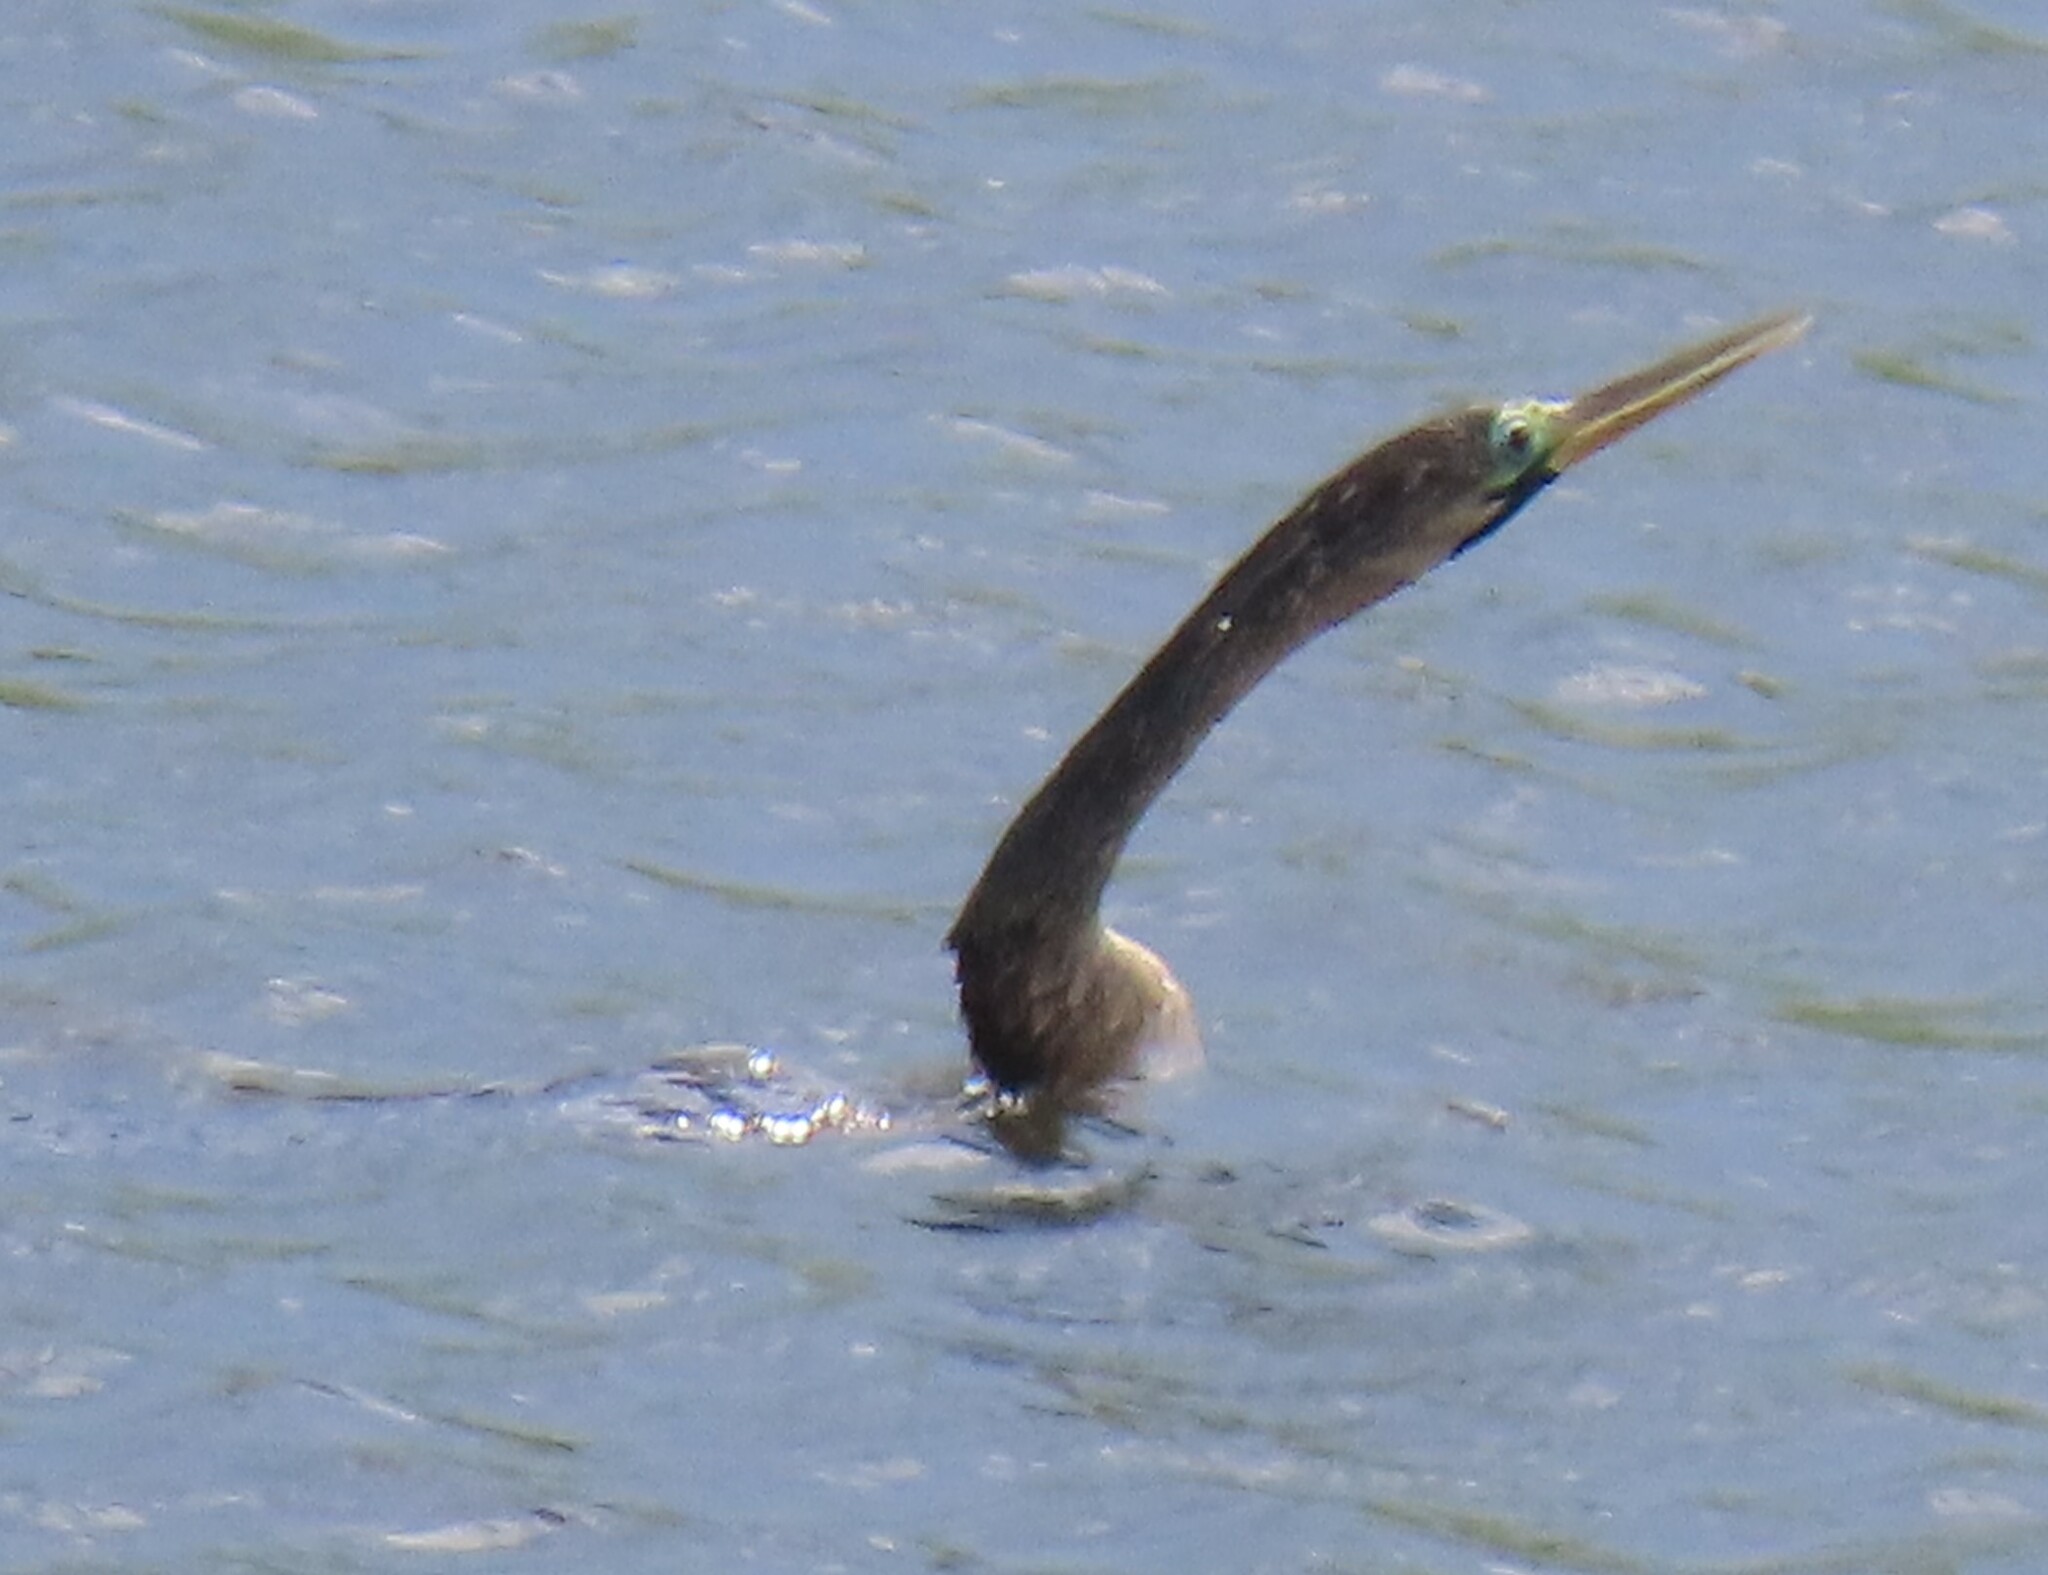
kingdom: Animalia
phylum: Chordata
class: Aves
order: Suliformes
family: Anhingidae
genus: Anhinga
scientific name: Anhinga anhinga
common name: Anhinga
